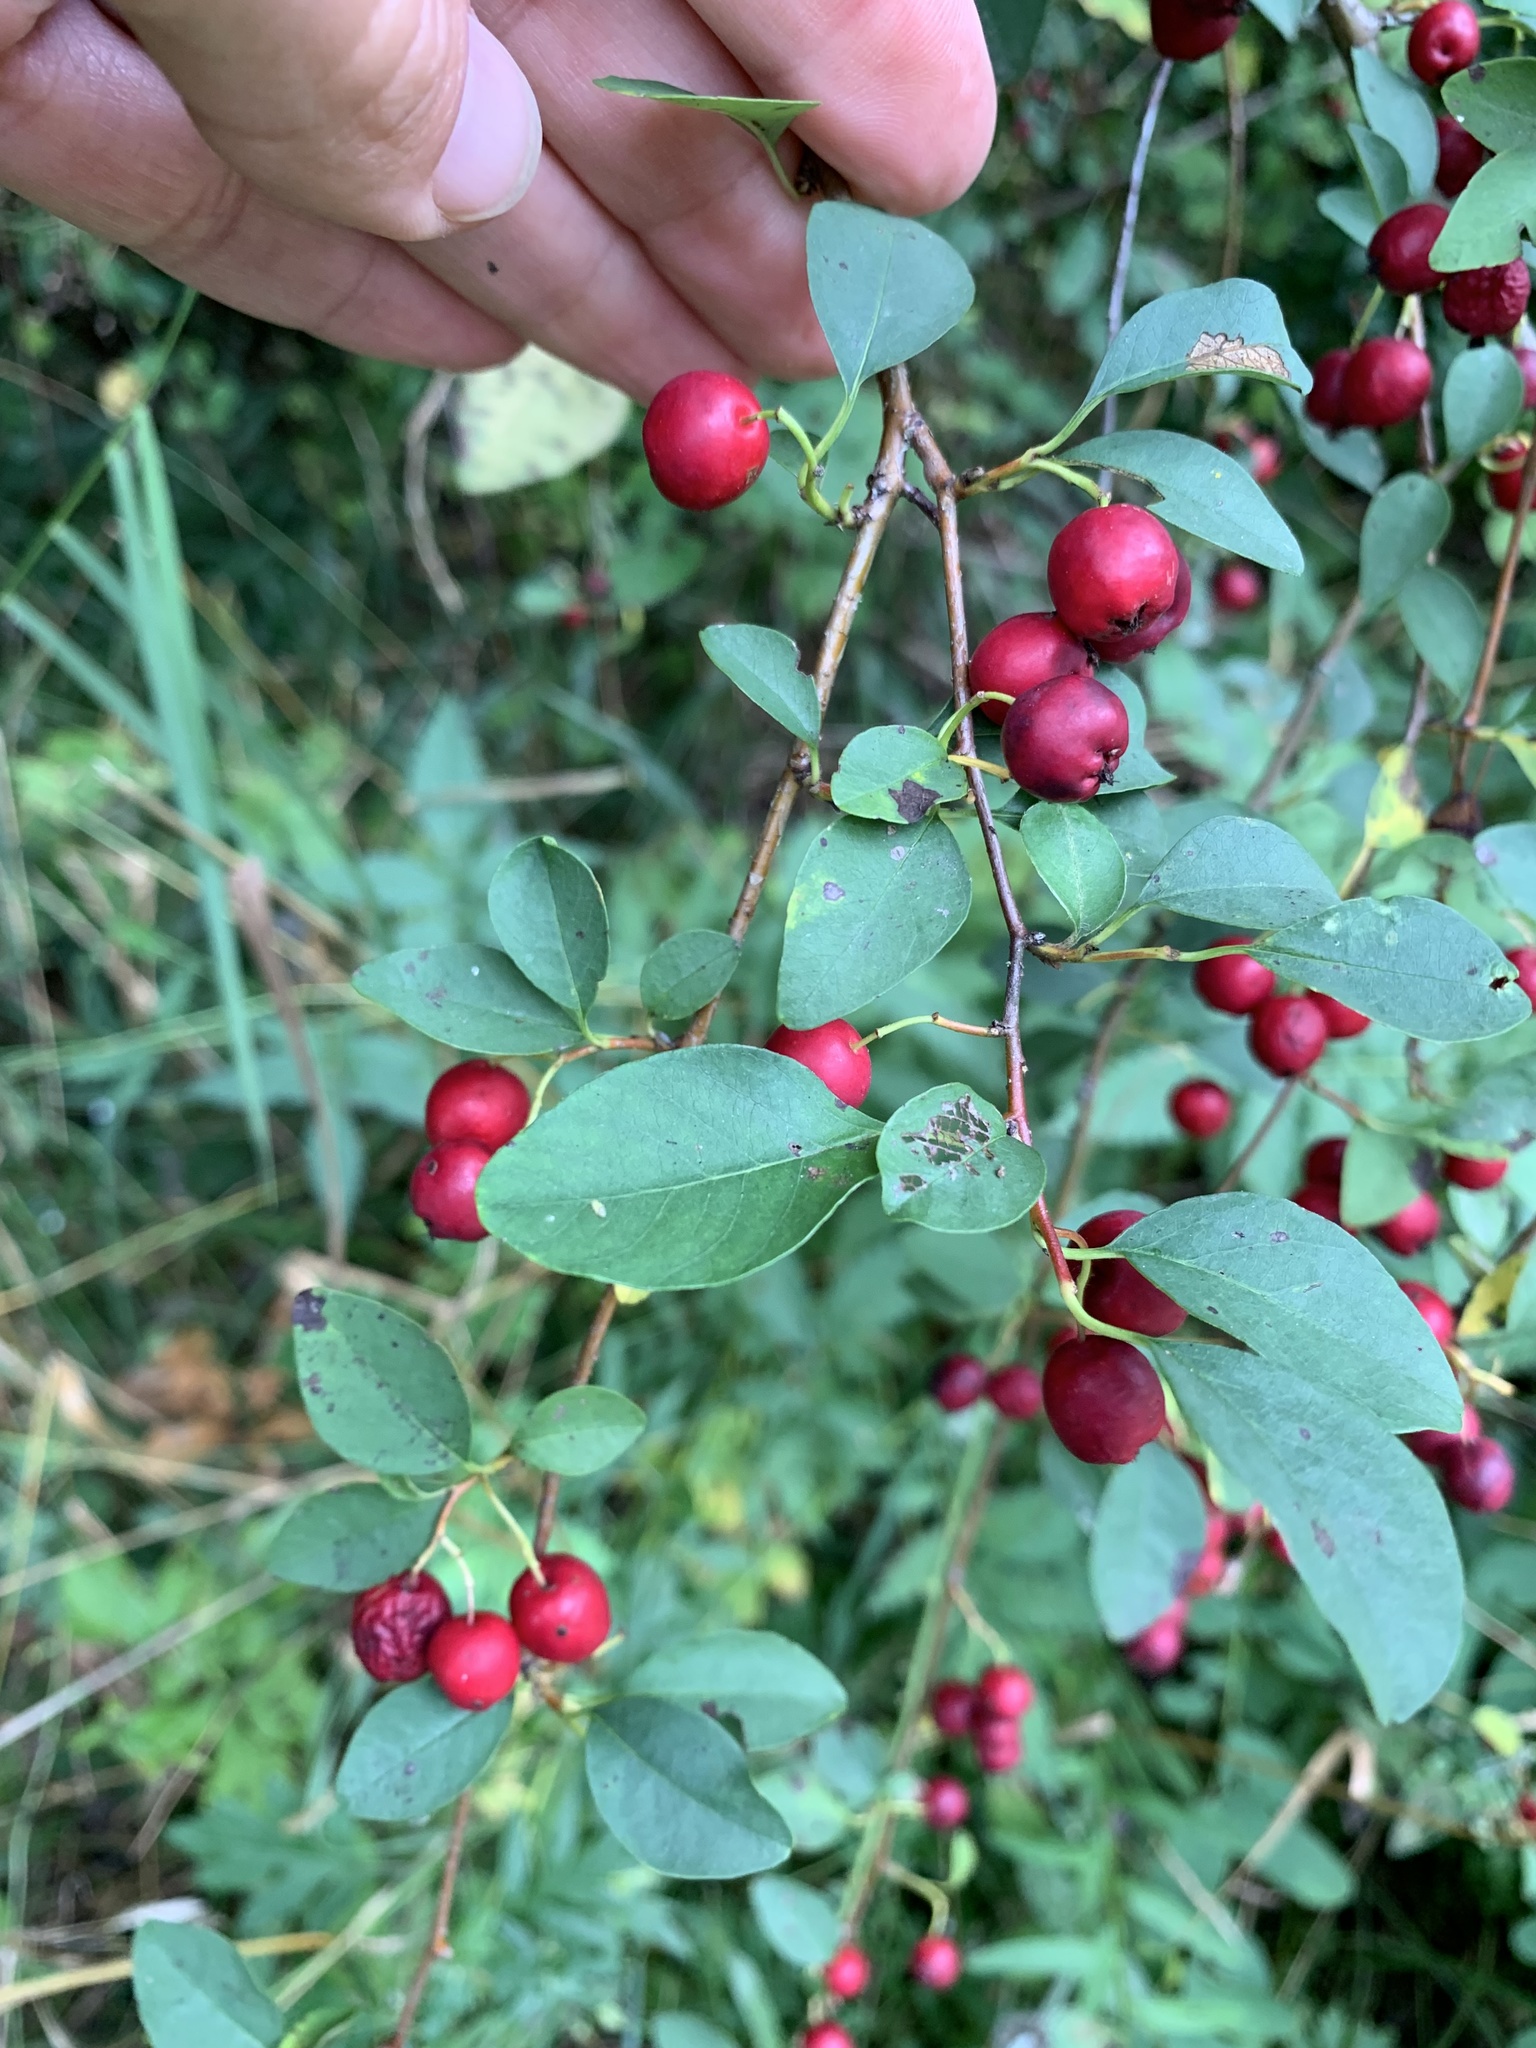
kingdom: Plantae
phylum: Tracheophyta
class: Magnoliopsida
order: Rosales
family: Rosaceae
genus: Cotoneaster
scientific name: Cotoneaster multiflorus
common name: Cotoneaster
